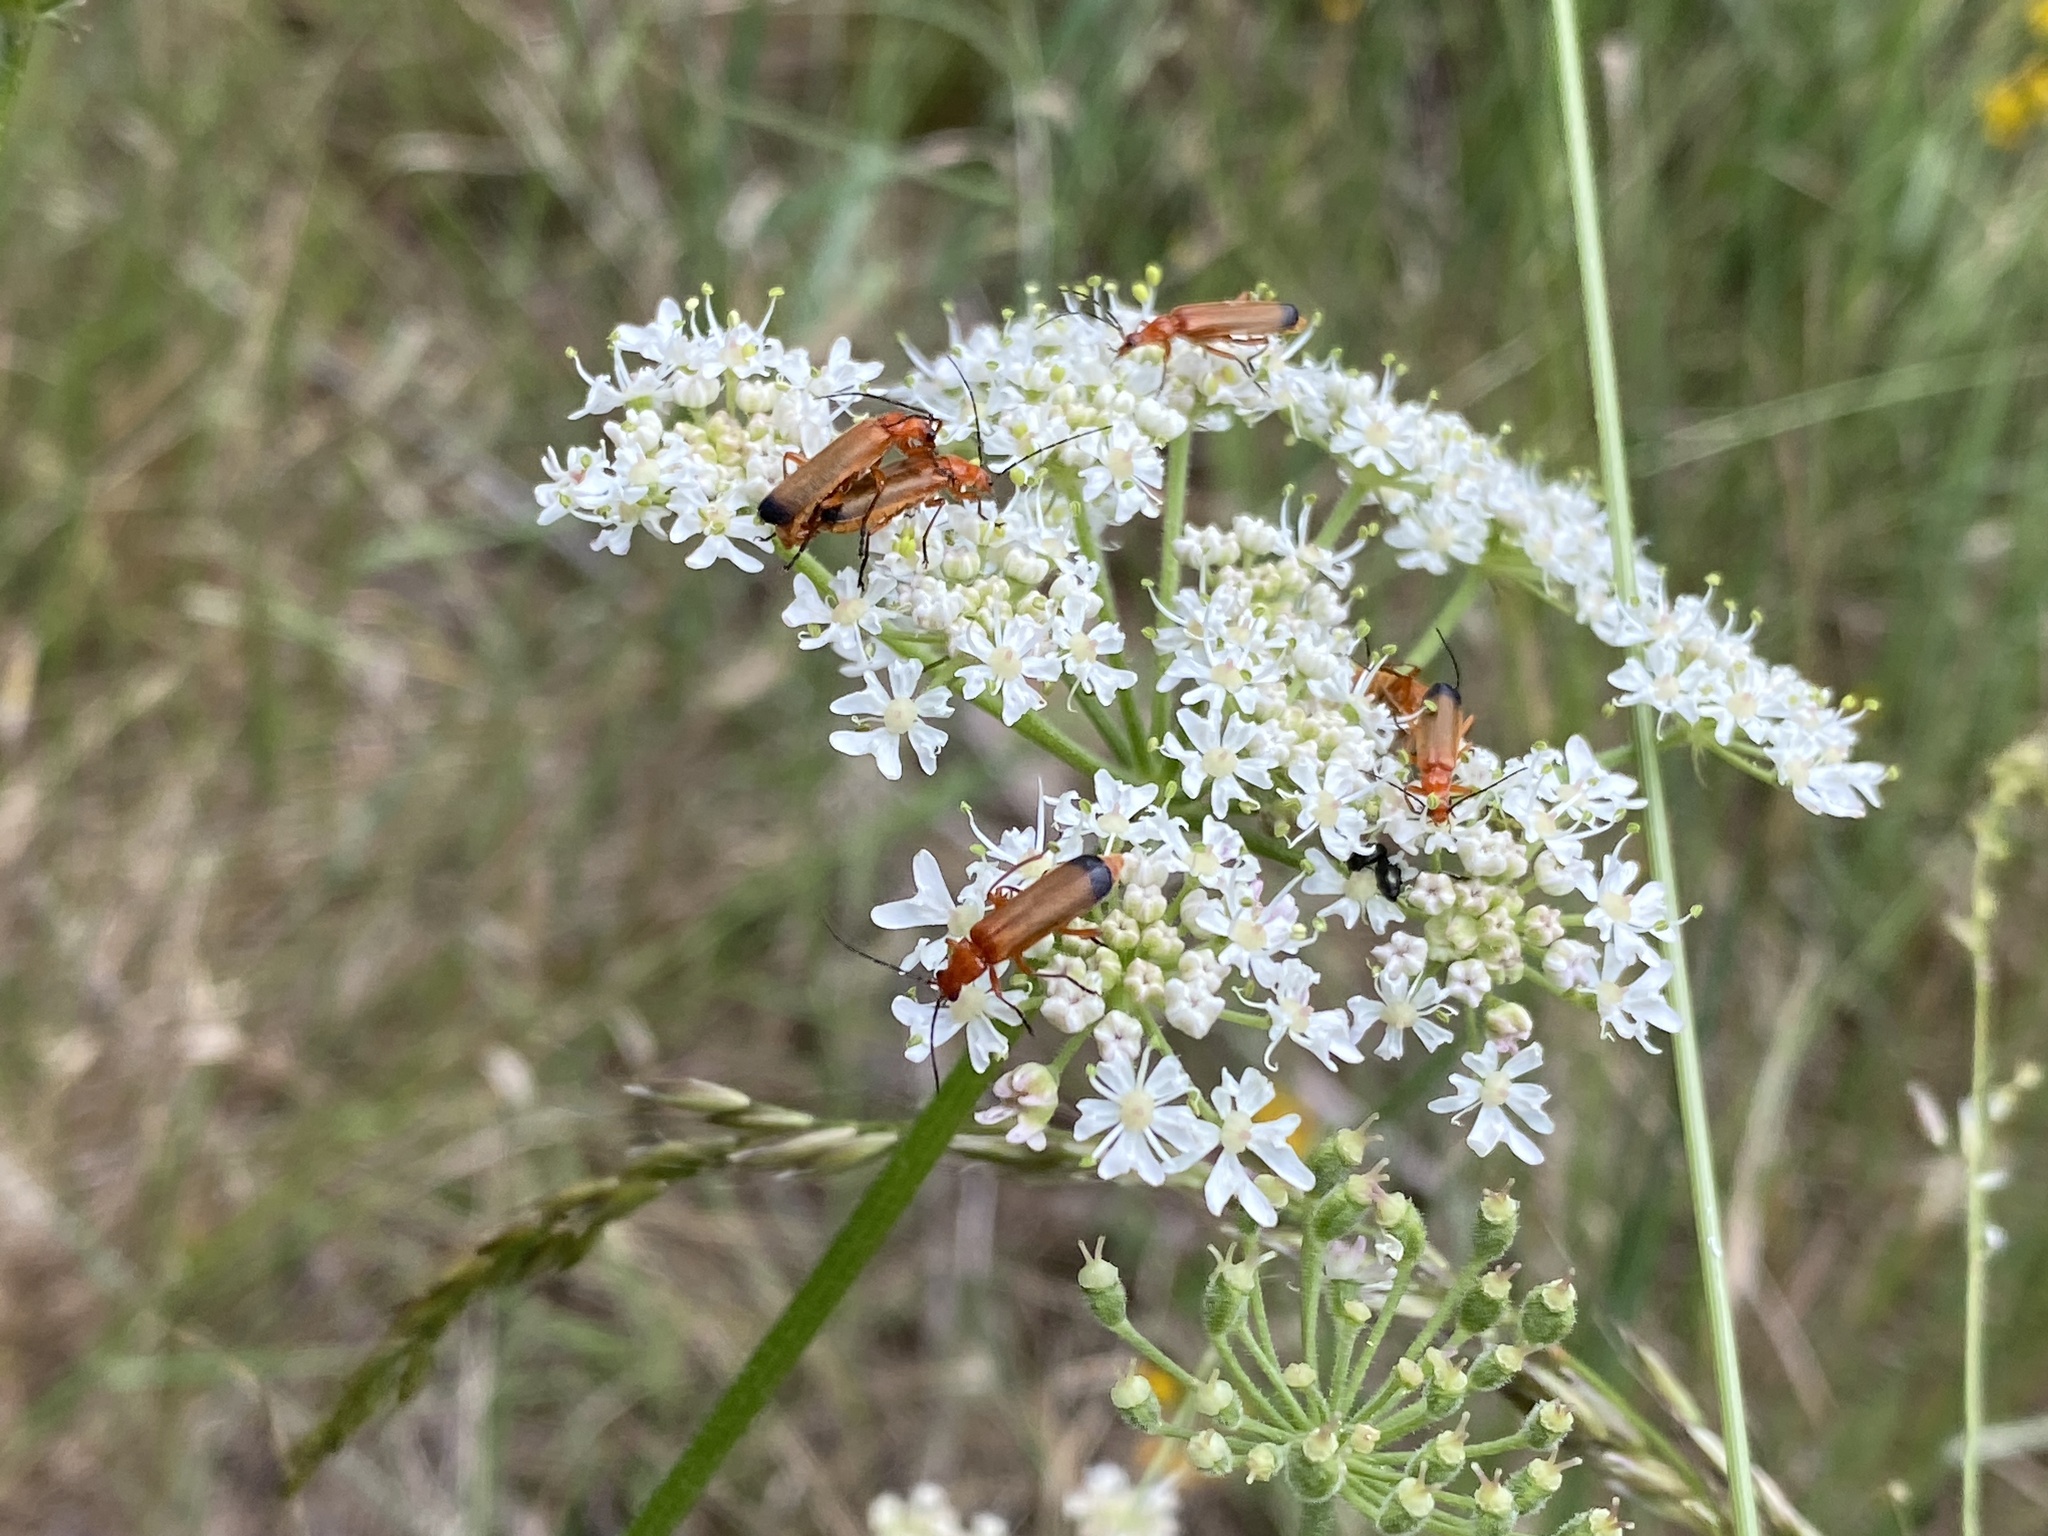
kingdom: Animalia
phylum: Arthropoda
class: Insecta
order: Coleoptera
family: Cantharidae
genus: Rhagonycha
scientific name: Rhagonycha fulva
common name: Common red soldier beetle
